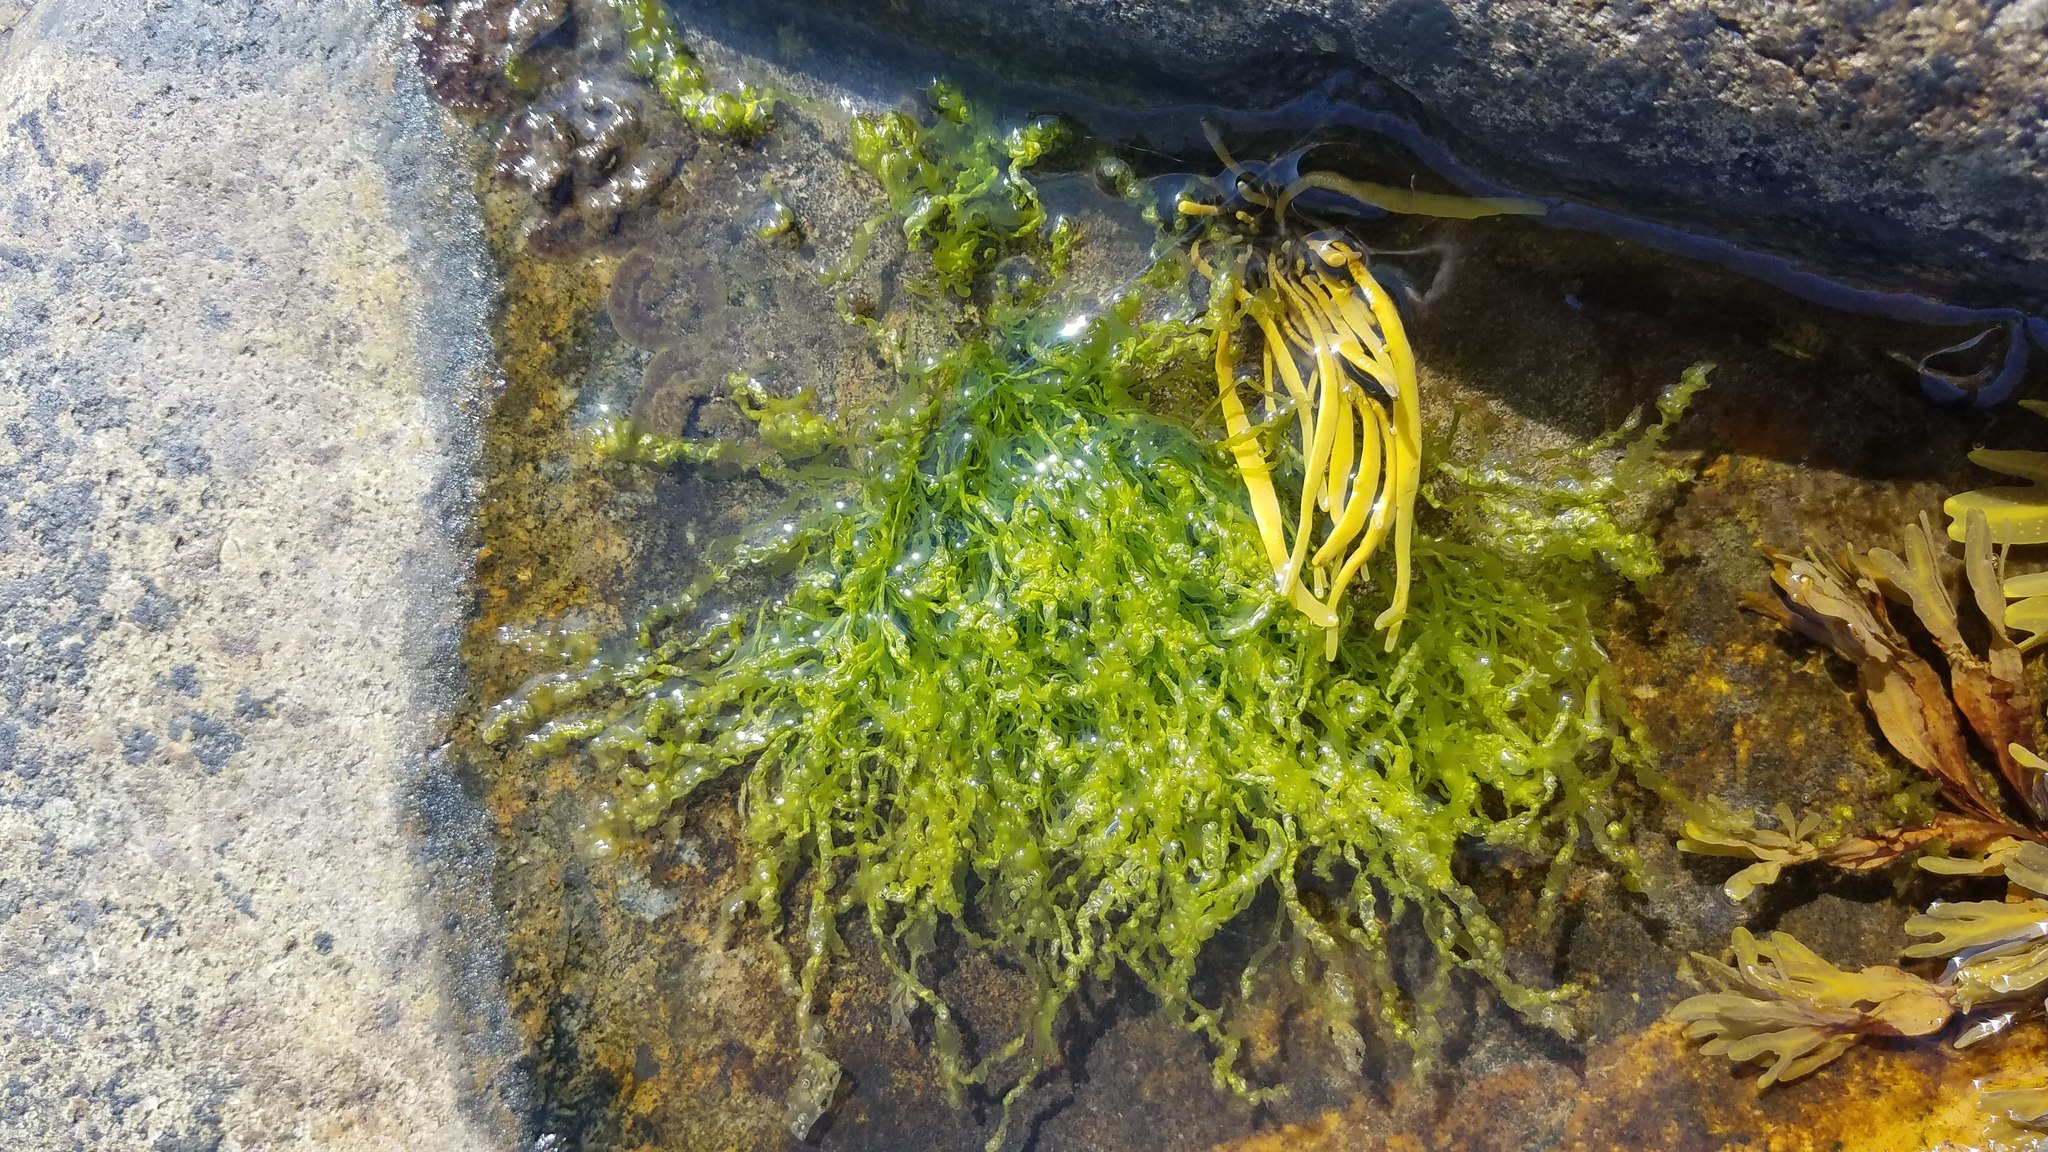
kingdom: Plantae
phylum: Chlorophyta
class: Ulvophyceae
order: Ulvales
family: Ulvaceae
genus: Ulva
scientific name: Ulva intestinalis
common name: Gut weed
